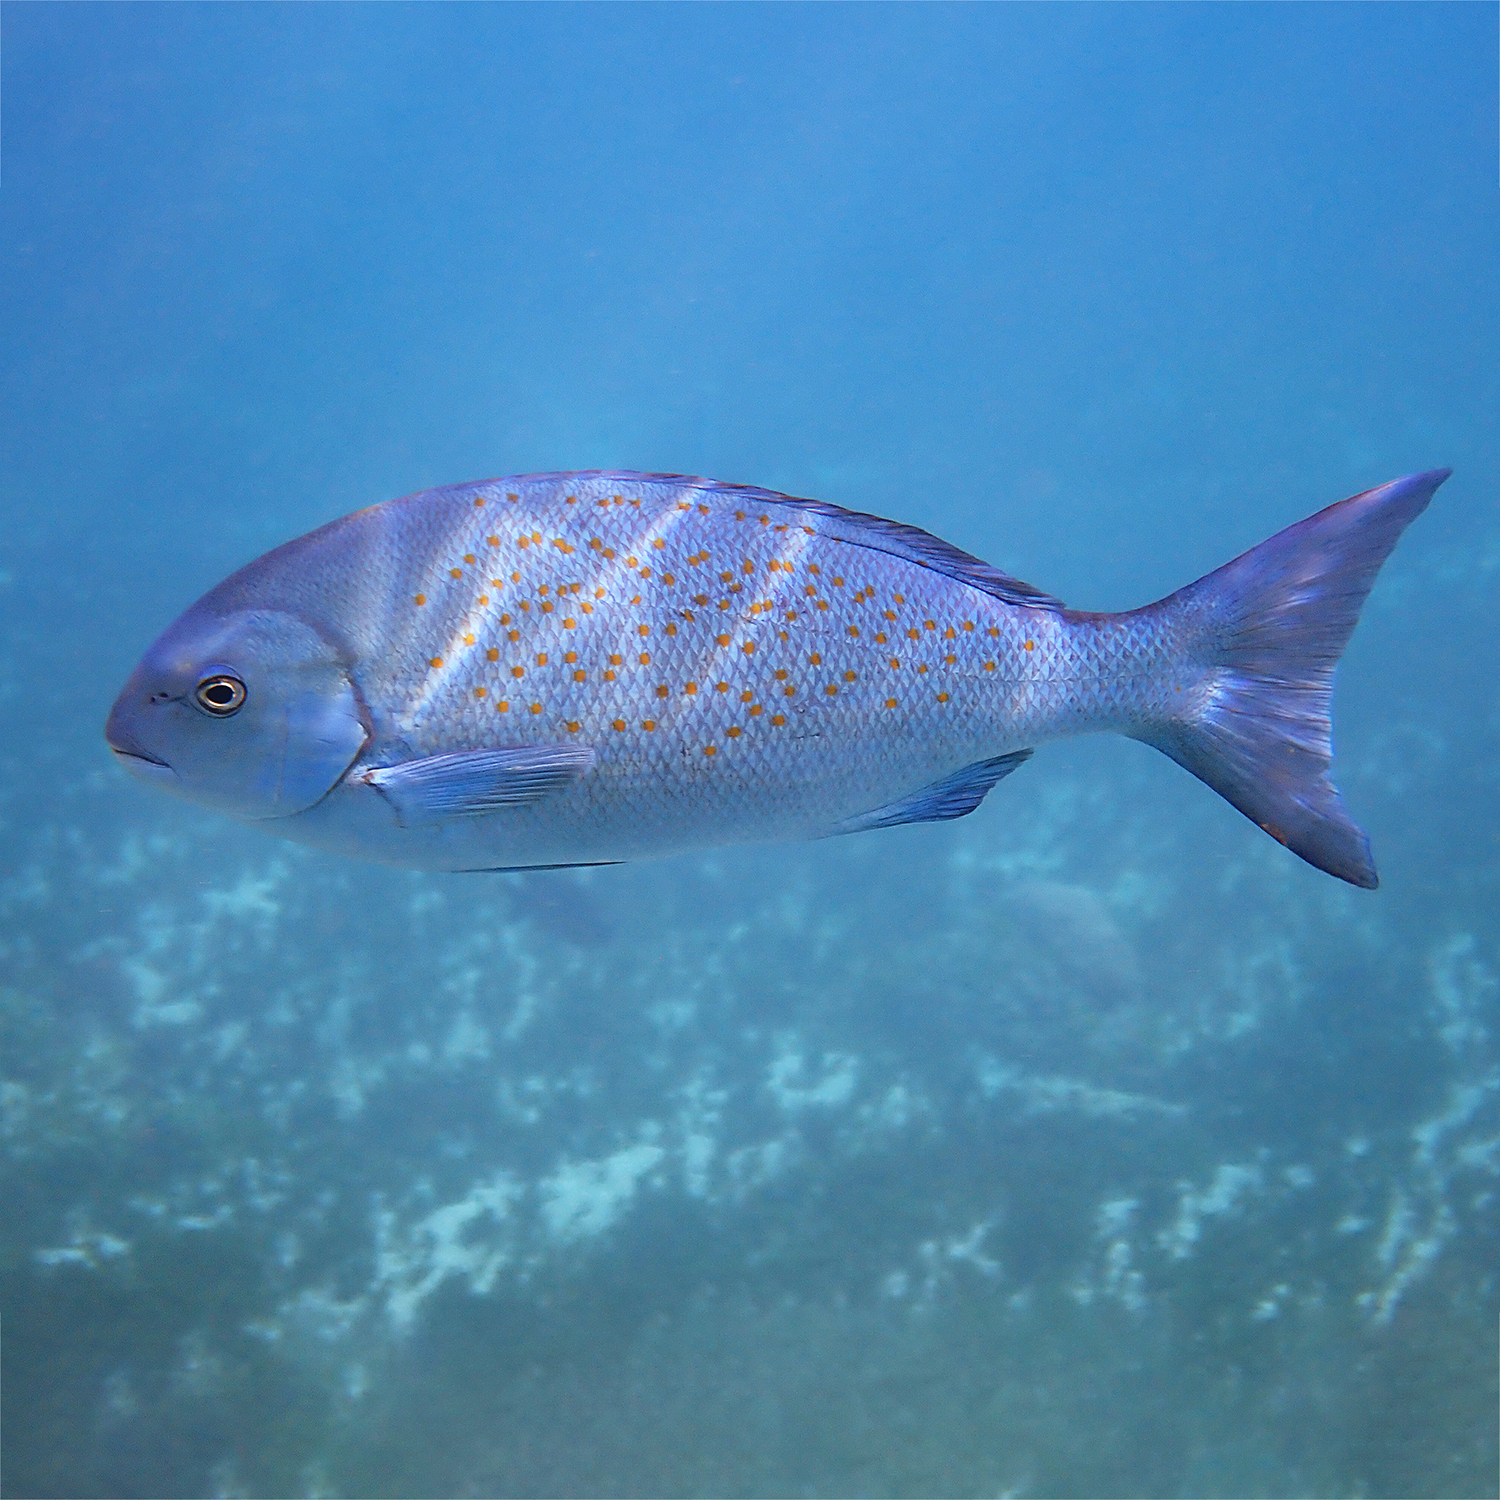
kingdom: Animalia
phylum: Chordata
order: Perciformes
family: Kyphosidae
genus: Girella
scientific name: Girella cyanea
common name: Bluefish
